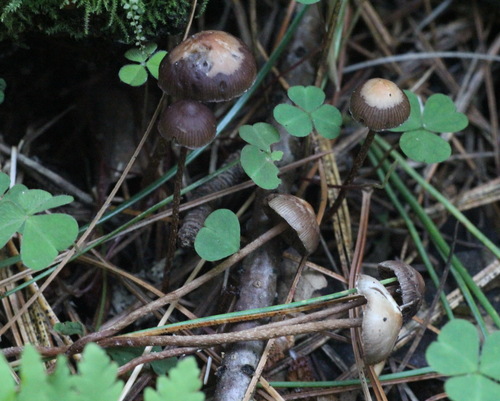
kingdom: Fungi
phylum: Basidiomycota
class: Agaricomycetes
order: Agaricales
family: Strophariaceae
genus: Deconica
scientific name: Deconica
